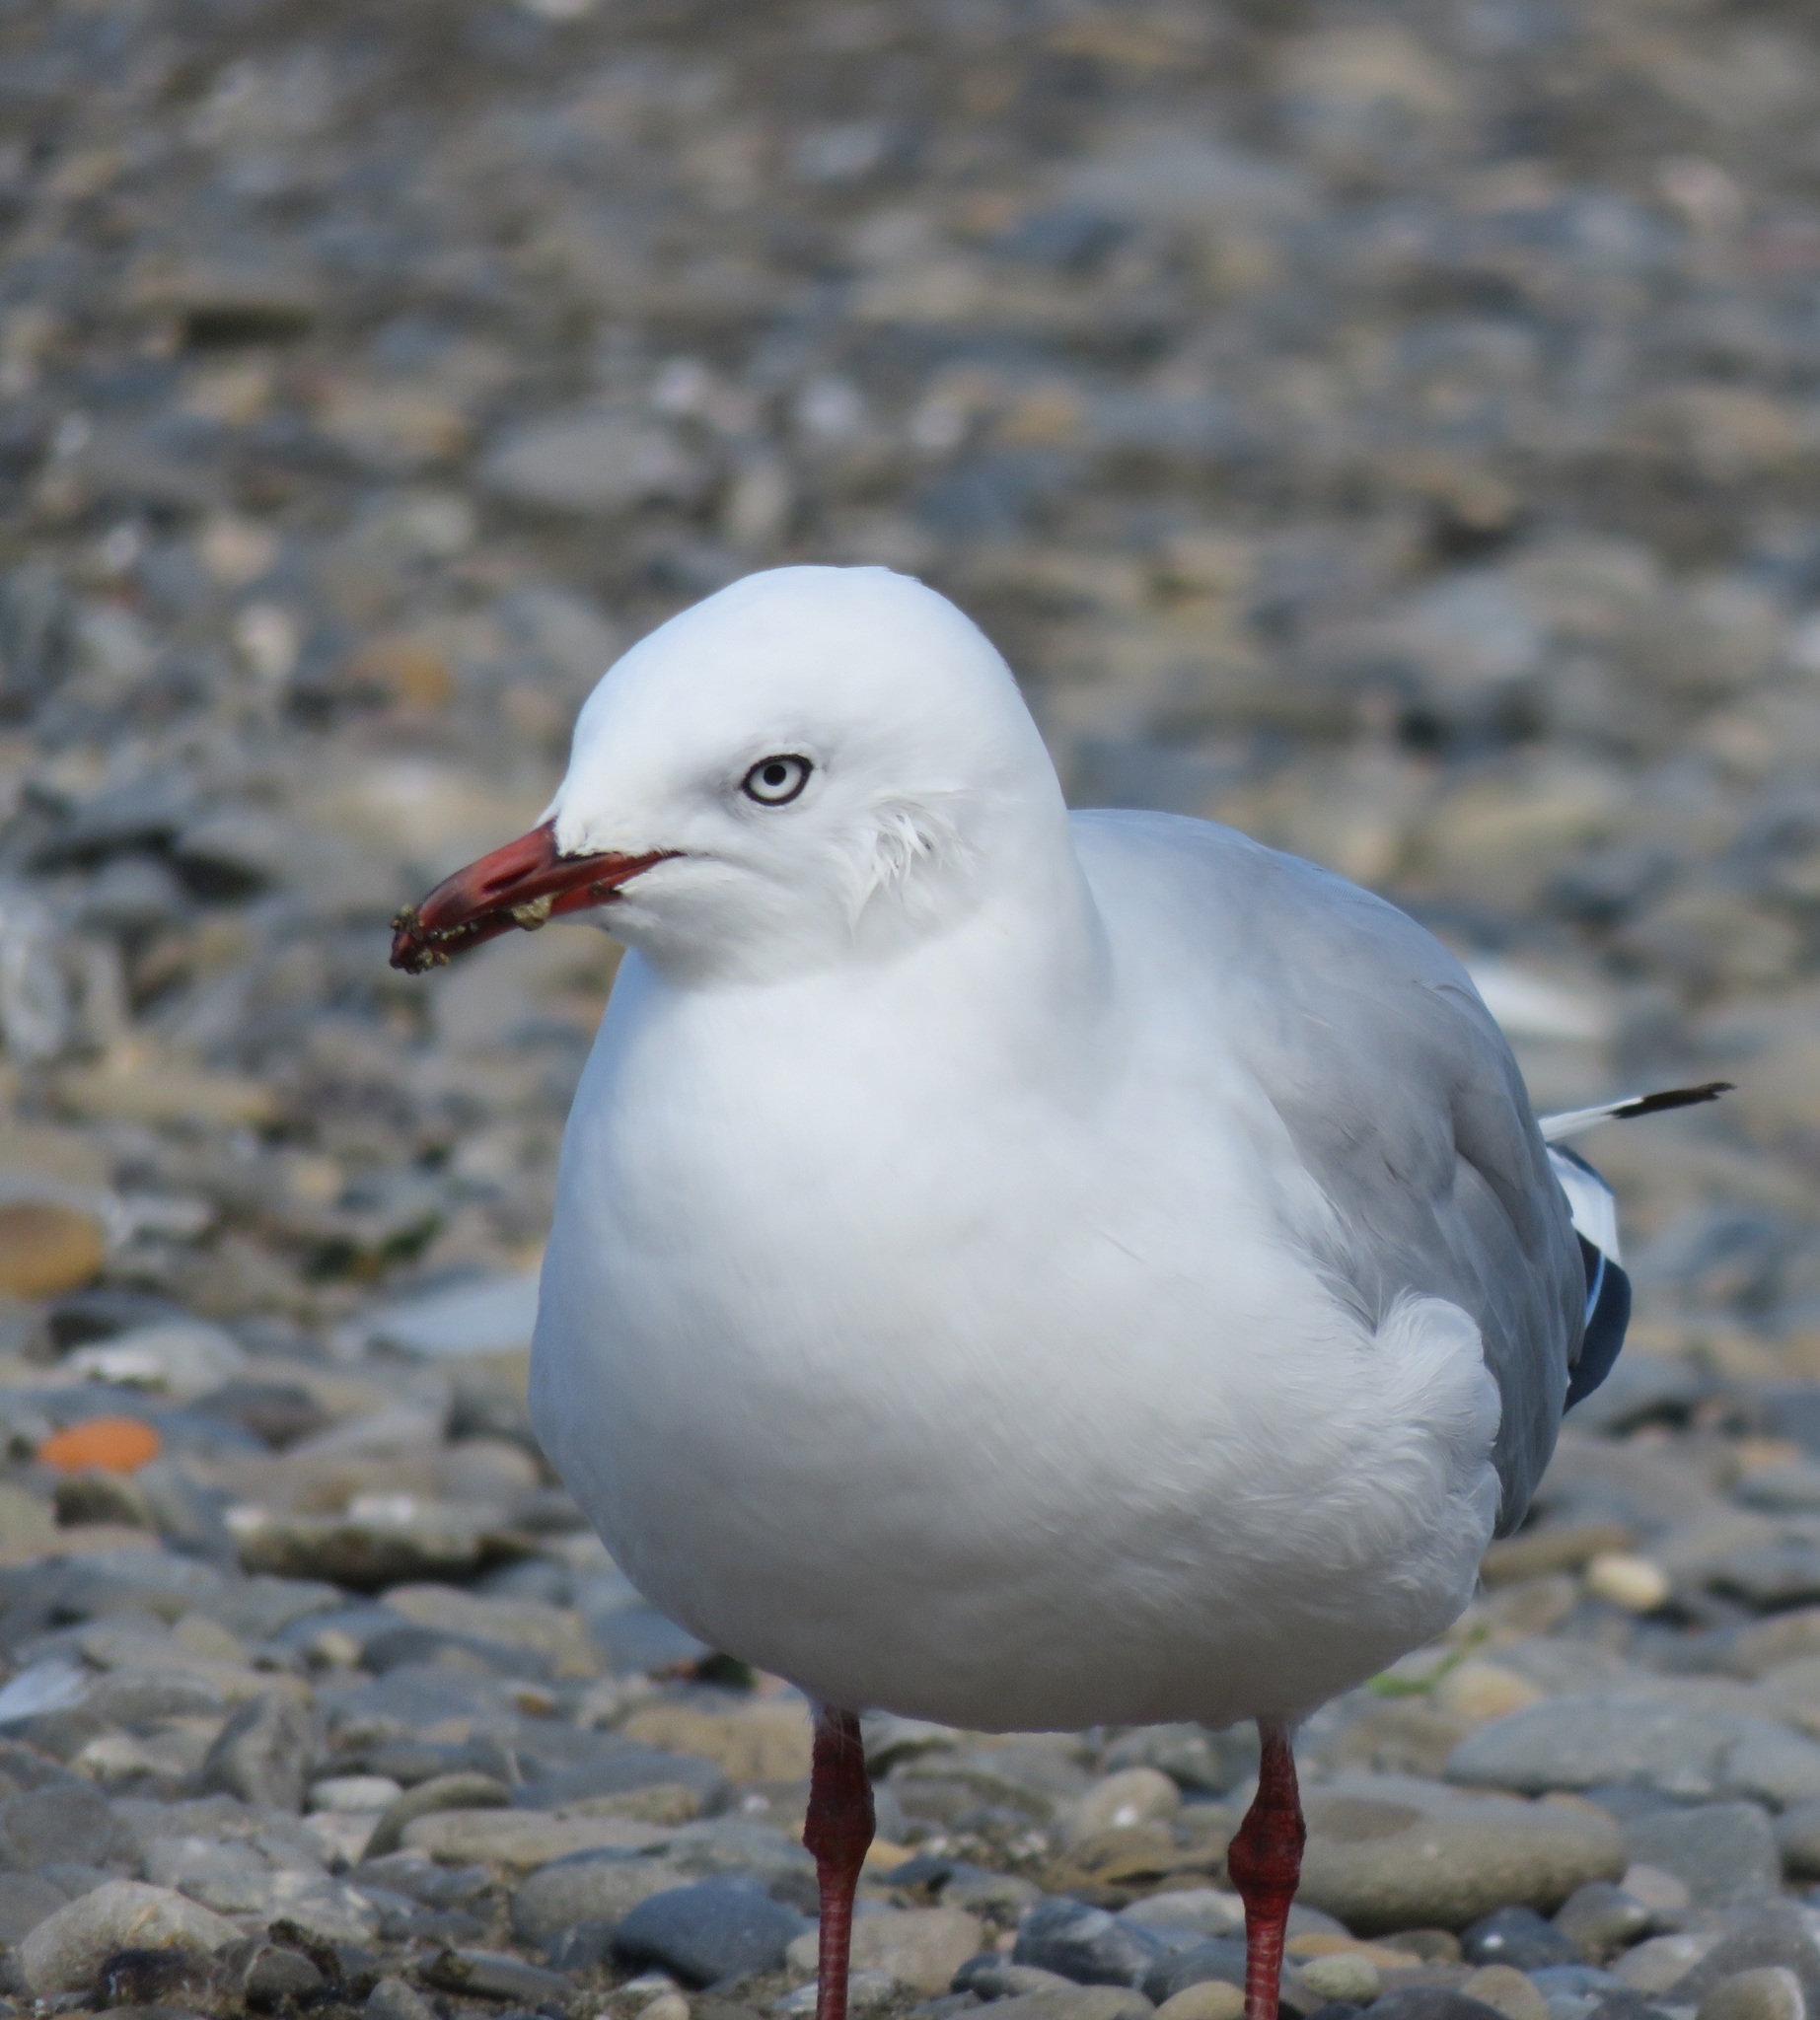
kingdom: Animalia
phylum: Chordata
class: Aves
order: Charadriiformes
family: Laridae
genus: Chroicocephalus
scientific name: Chroicocephalus novaehollandiae
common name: Silver gull
